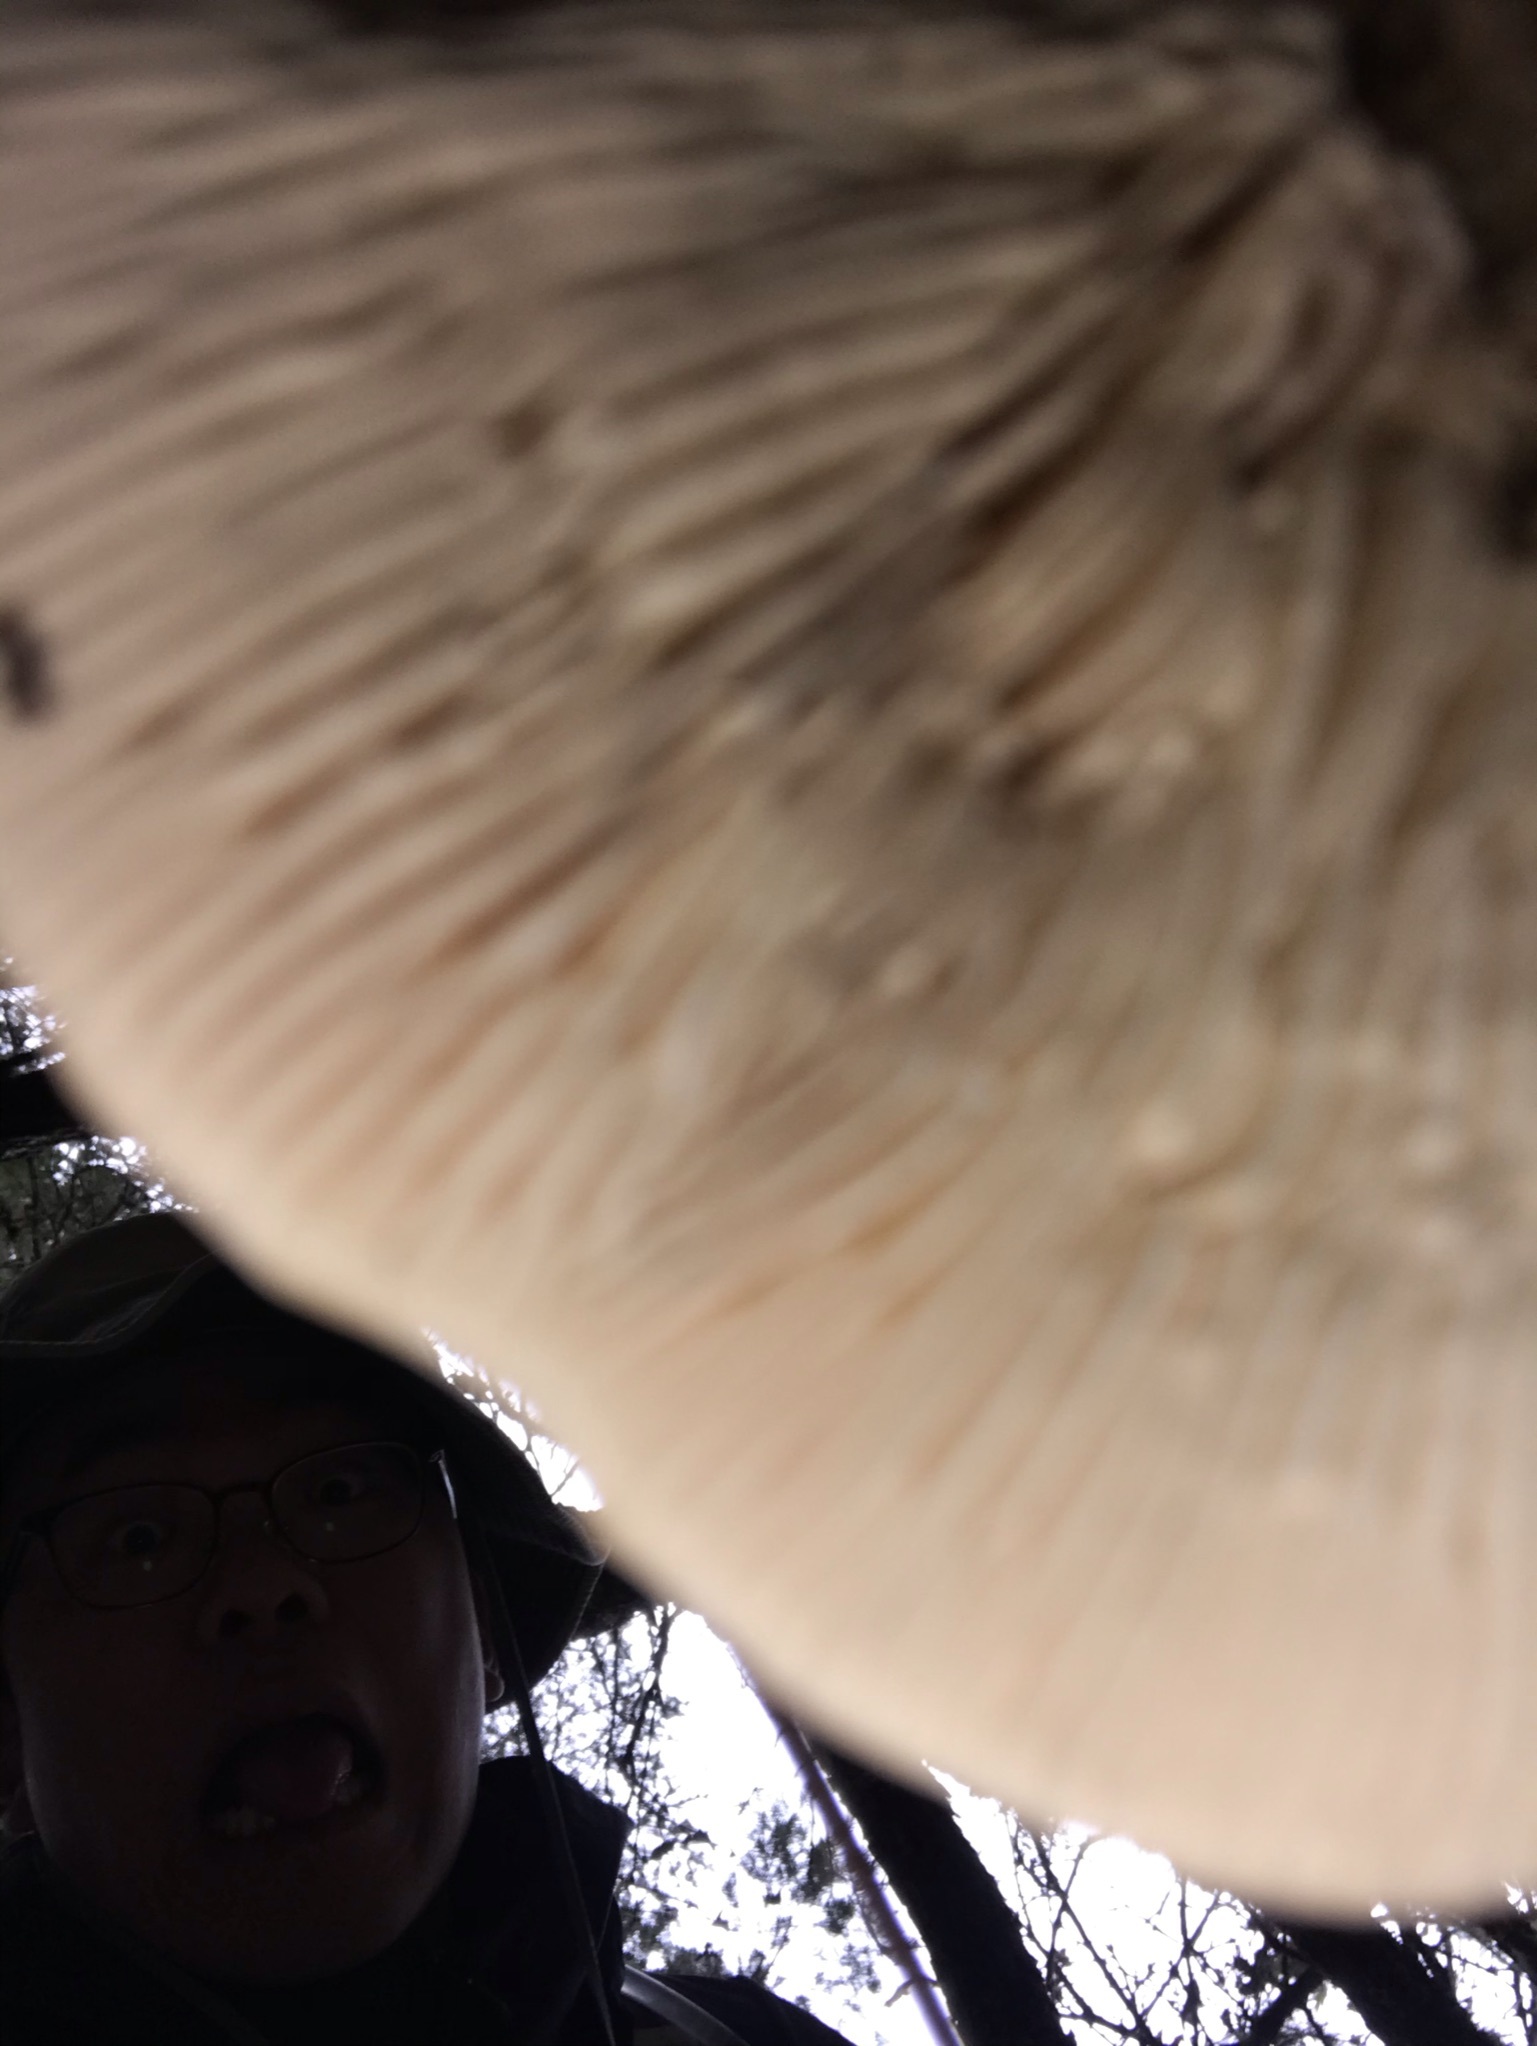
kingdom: Fungi
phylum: Basidiomycota
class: Agaricomycetes
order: Polyporales
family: Polyporaceae
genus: Lenzites
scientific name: Lenzites betulinus
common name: Birch mazegill
